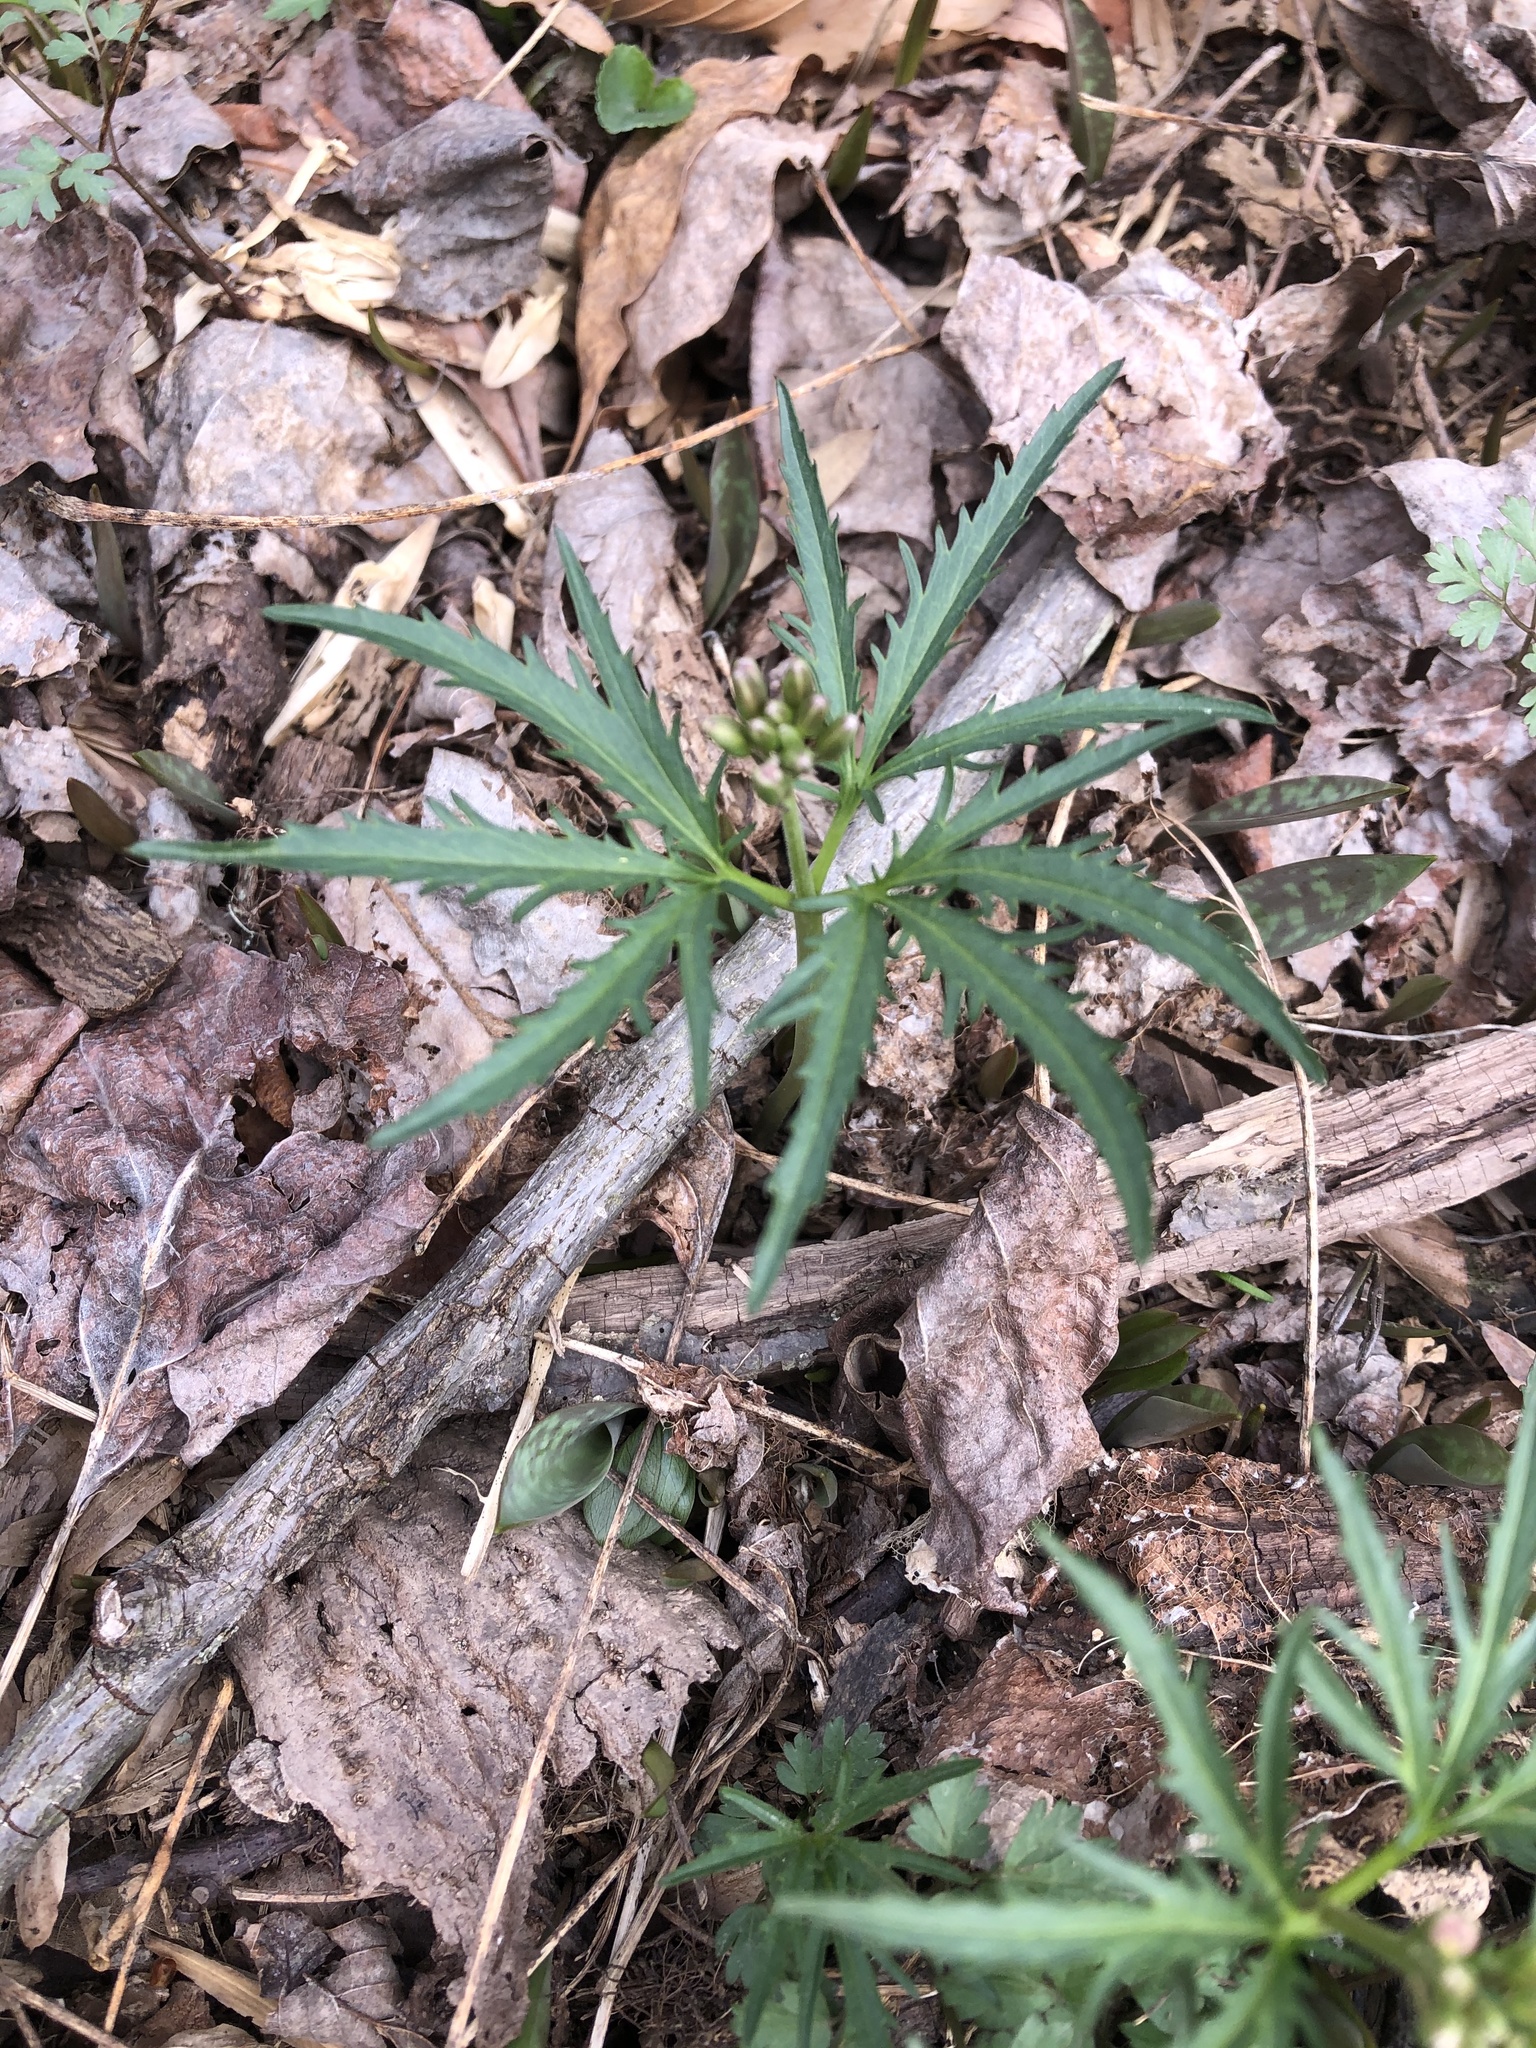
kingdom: Plantae
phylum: Tracheophyta
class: Magnoliopsida
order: Brassicales
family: Brassicaceae
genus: Cardamine
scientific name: Cardamine concatenata
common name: Cut-leaf toothcup
